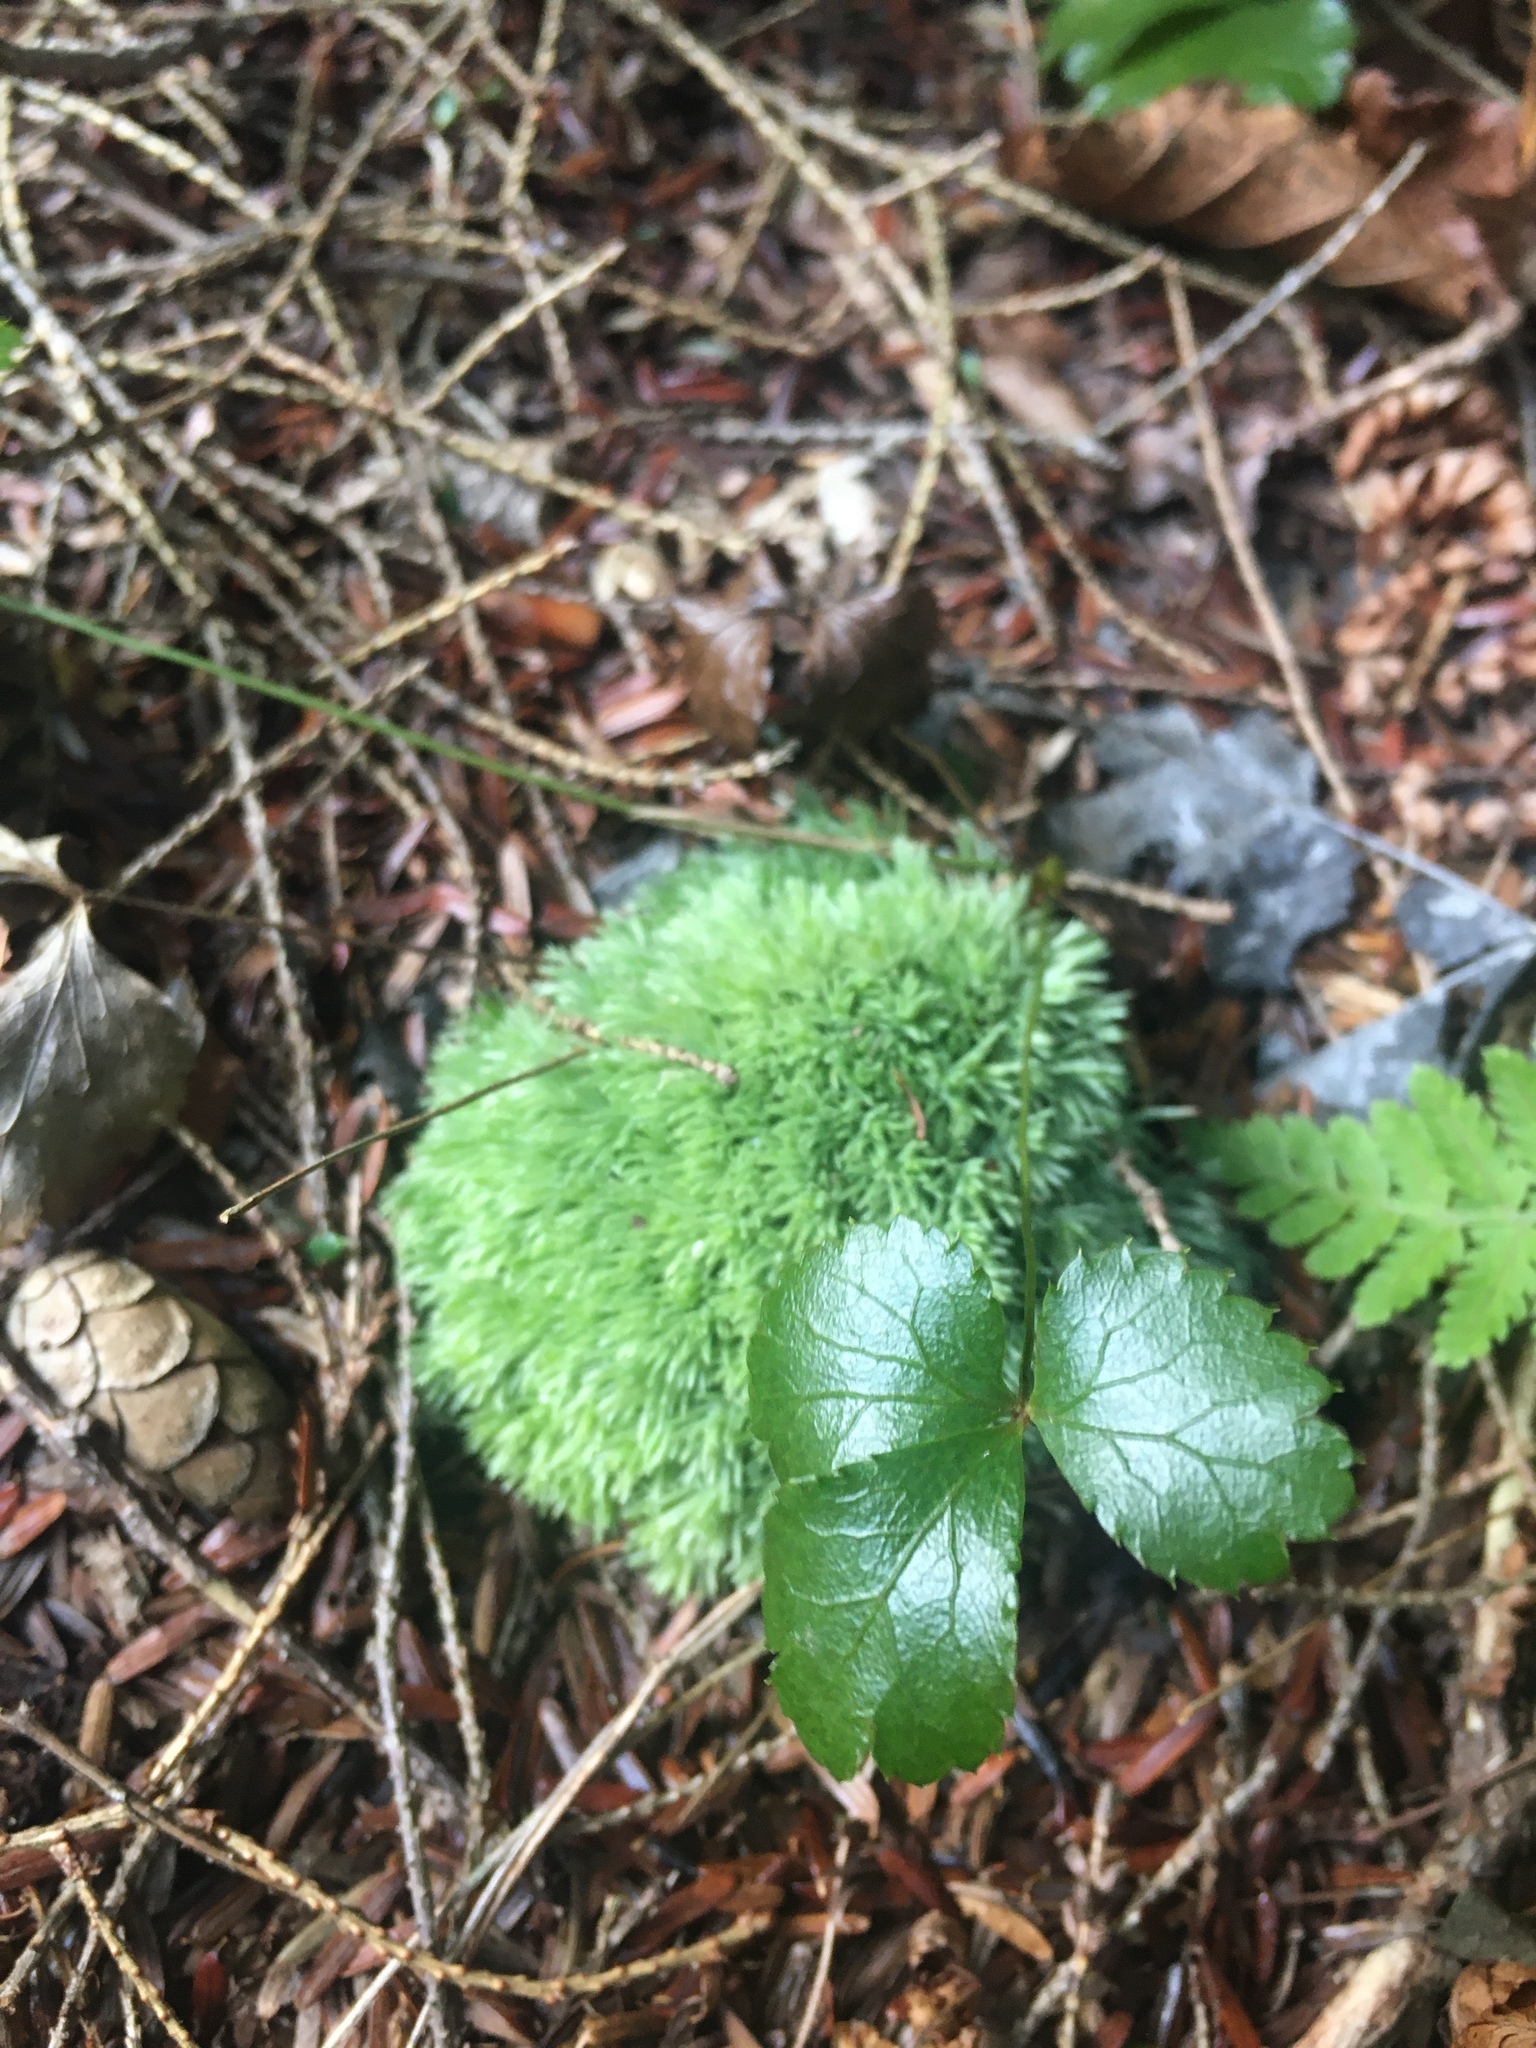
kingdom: Plantae
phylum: Tracheophyta
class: Magnoliopsida
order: Ranunculales
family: Ranunculaceae
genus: Coptis
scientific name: Coptis trifolia
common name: Canker-root
